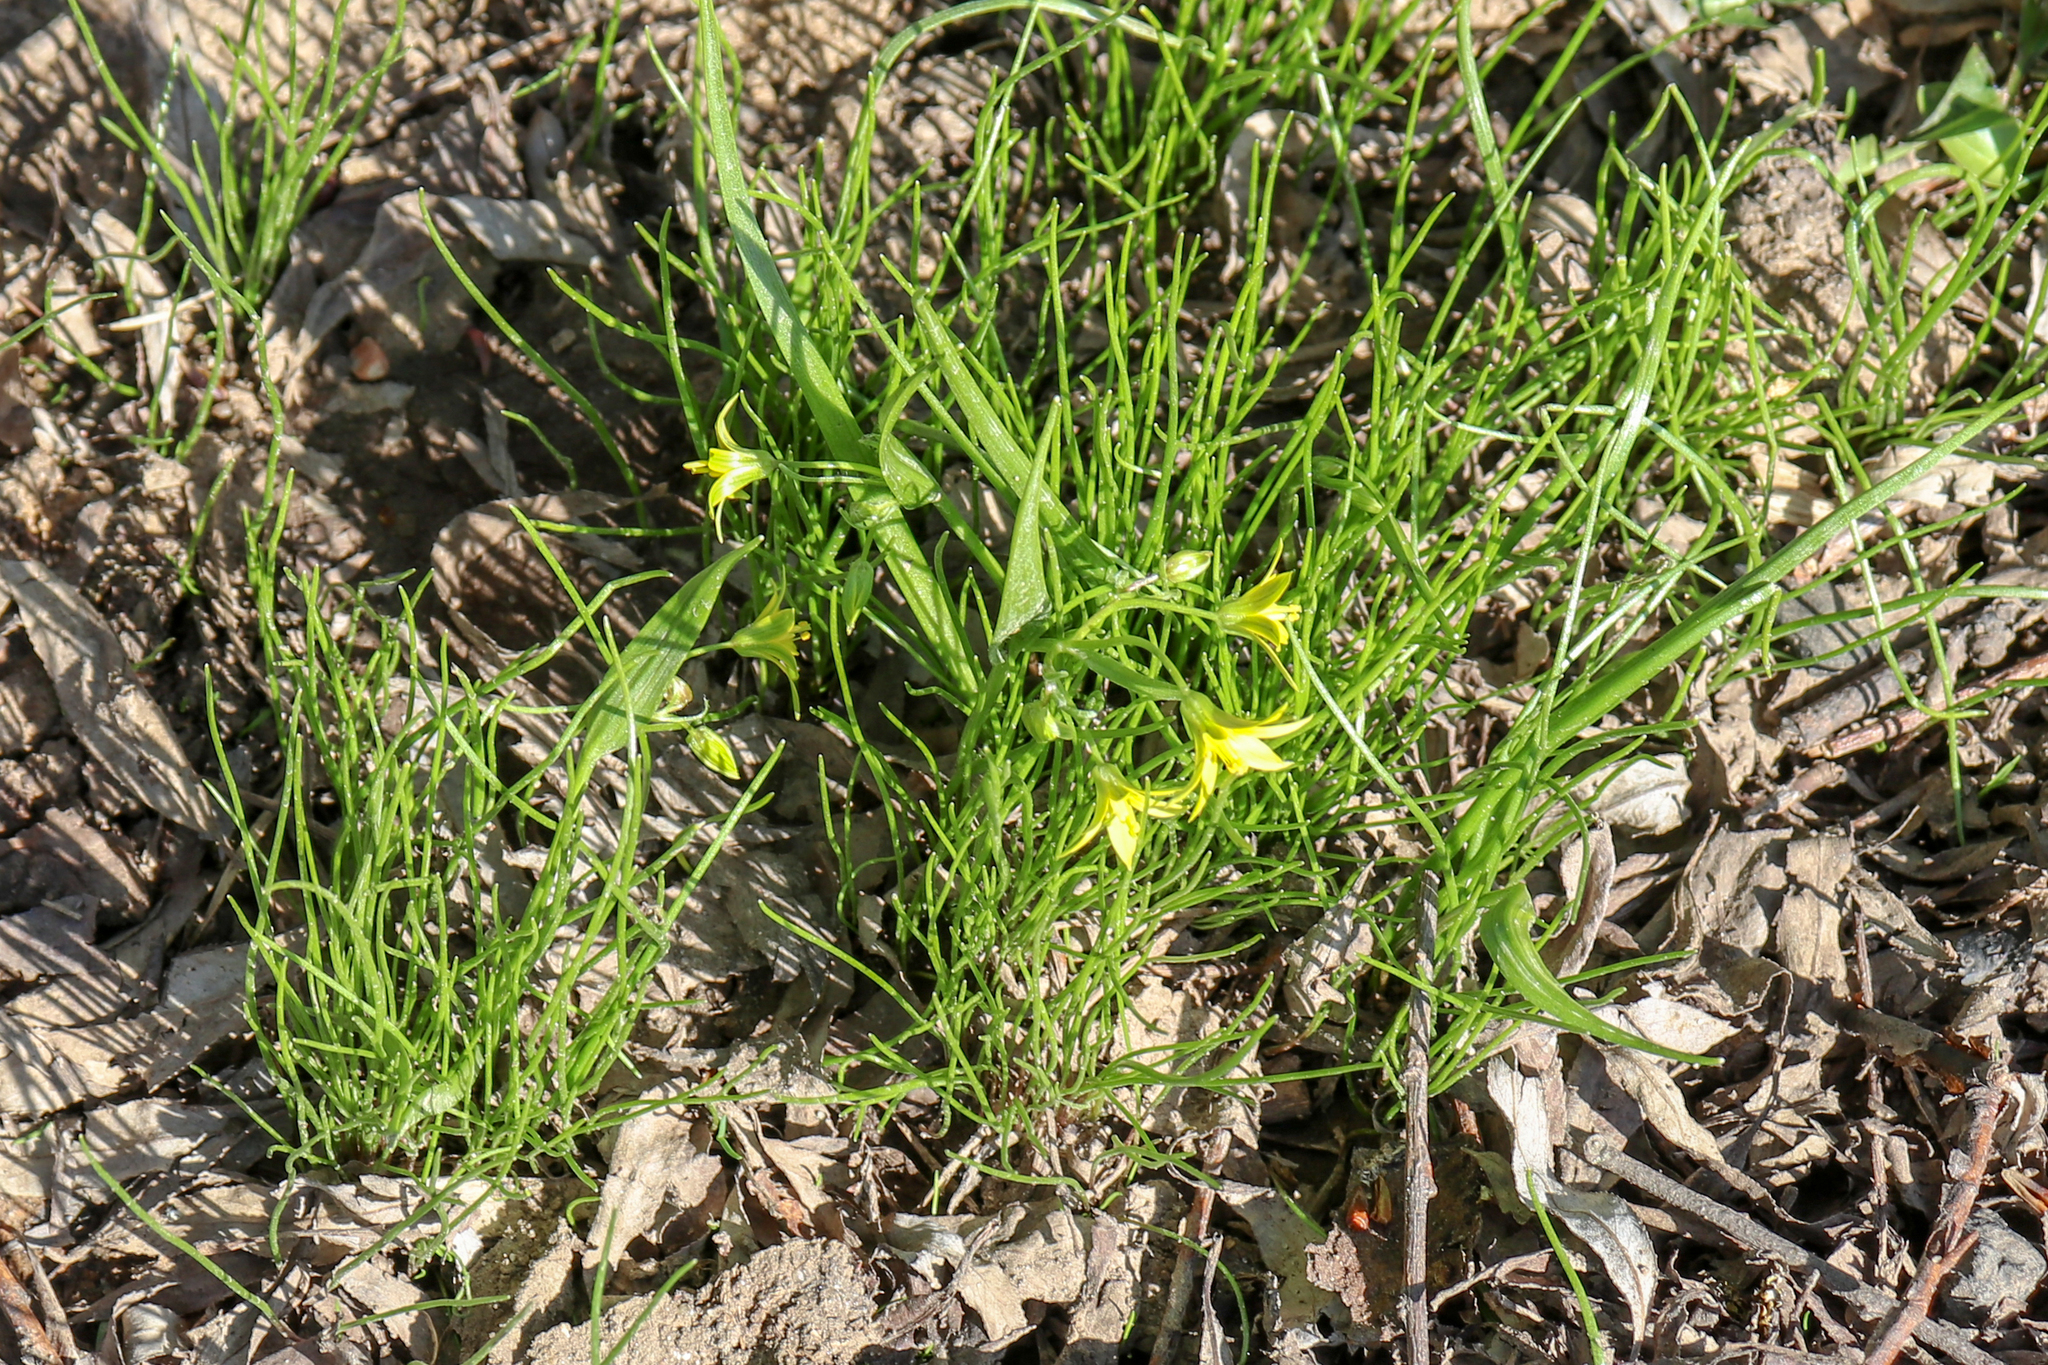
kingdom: Plantae
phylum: Tracheophyta
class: Liliopsida
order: Liliales
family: Liliaceae
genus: Gagea
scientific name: Gagea minima
